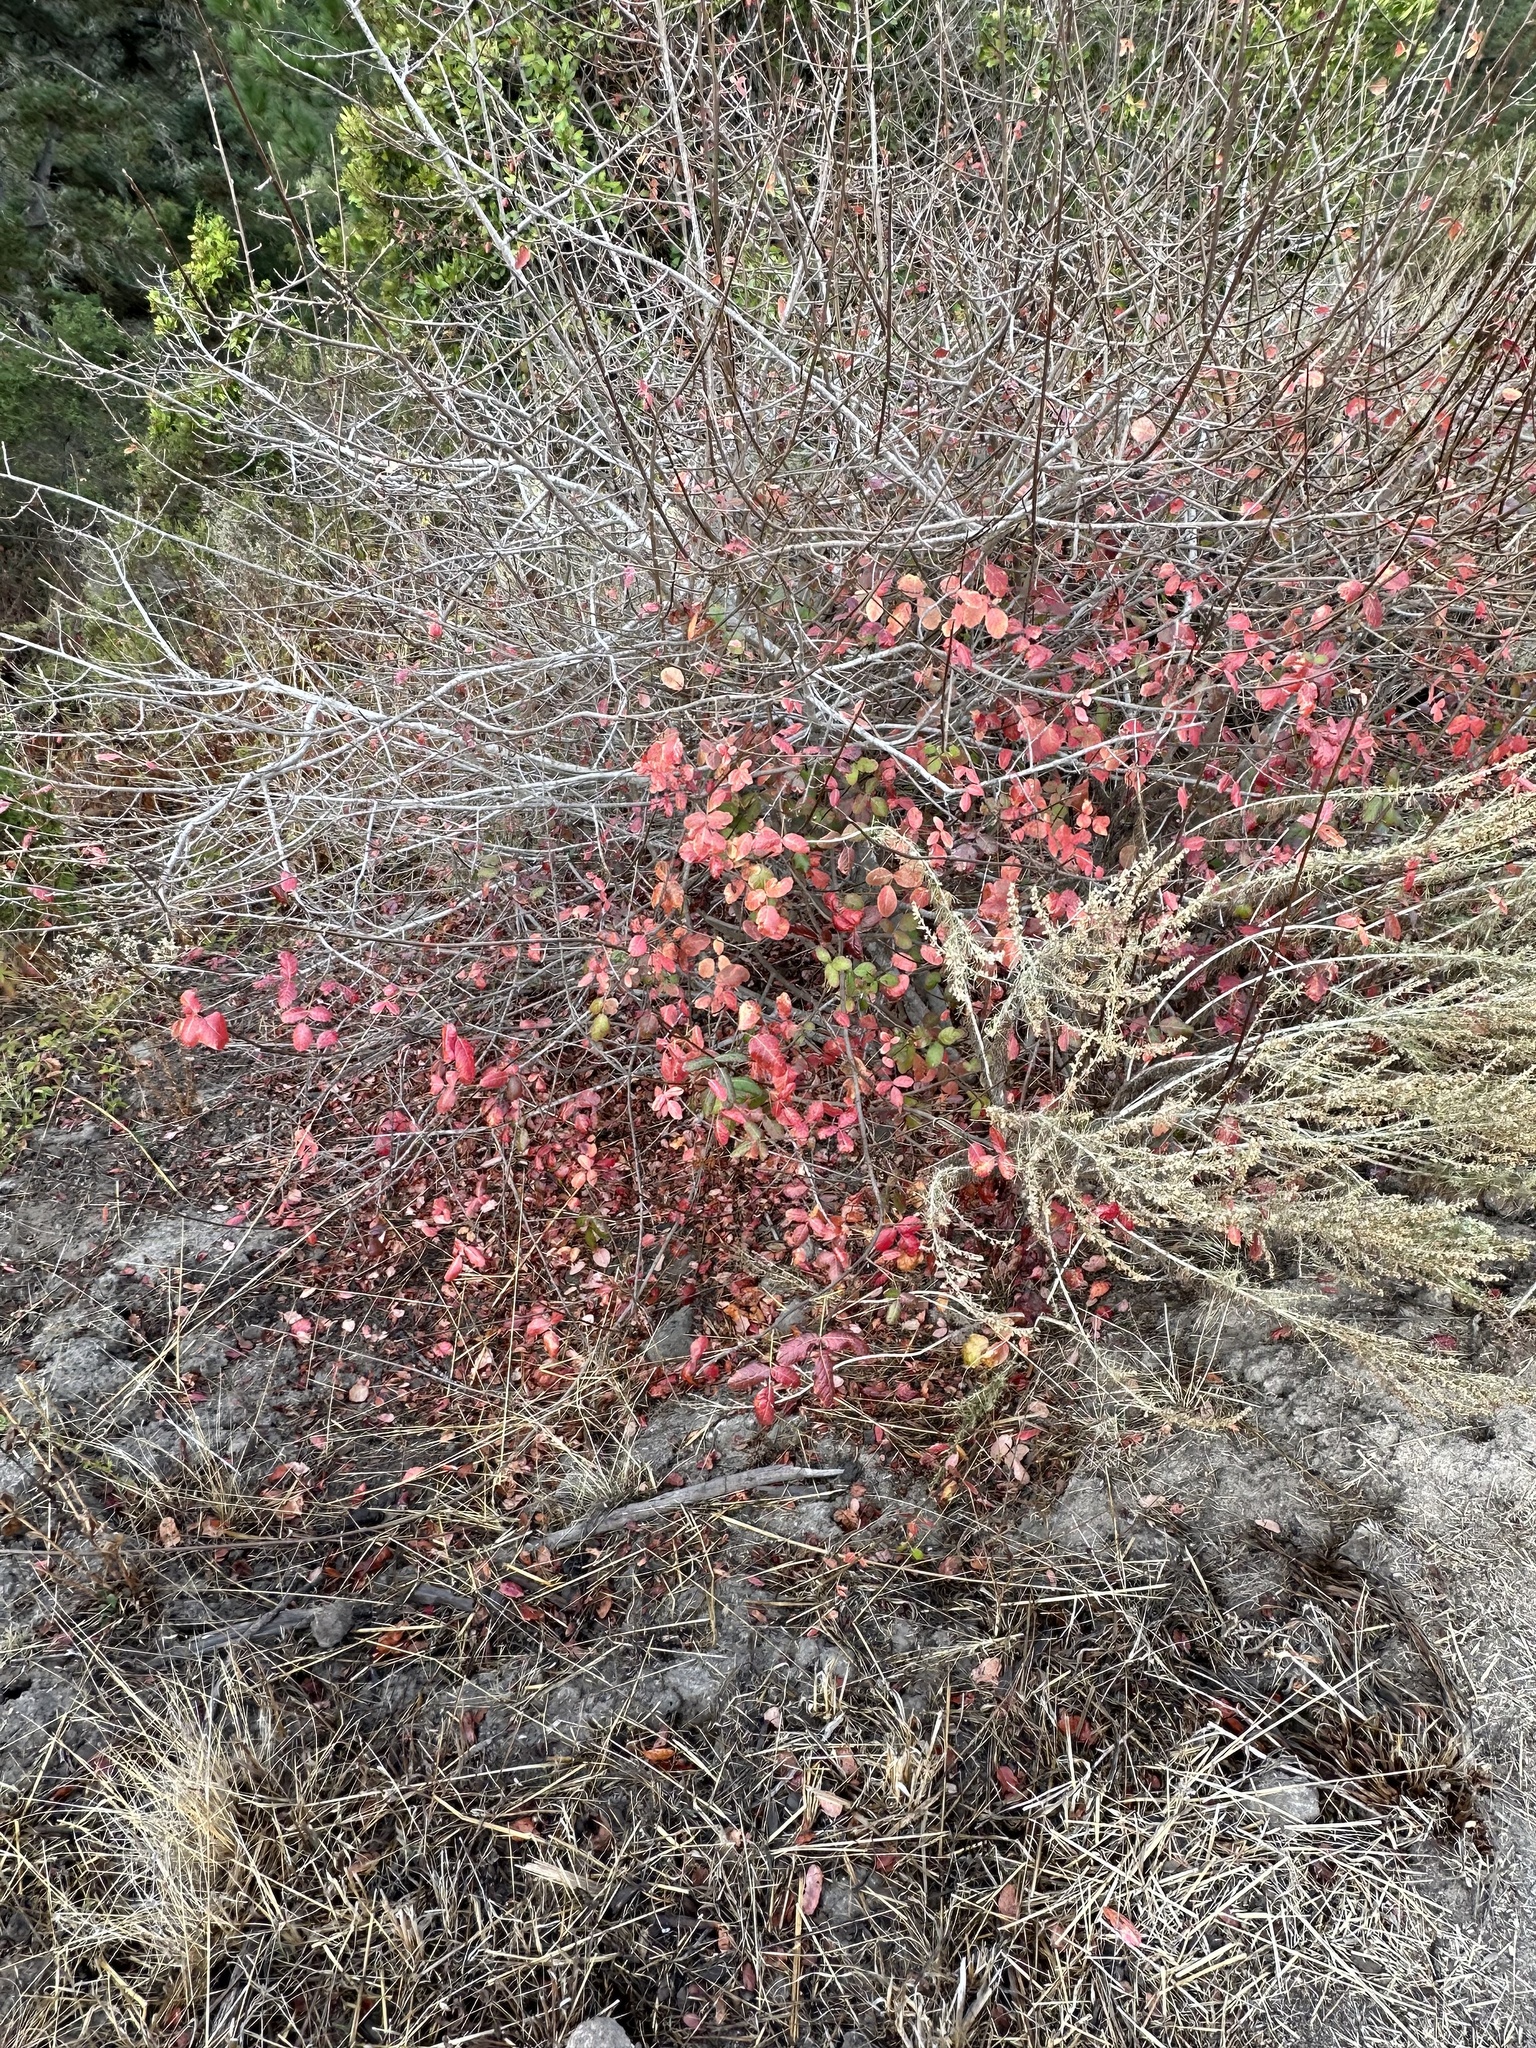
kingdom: Plantae
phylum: Tracheophyta
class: Magnoliopsida
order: Sapindales
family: Anacardiaceae
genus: Toxicodendron
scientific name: Toxicodendron diversilobum
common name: Pacific poison-oak
